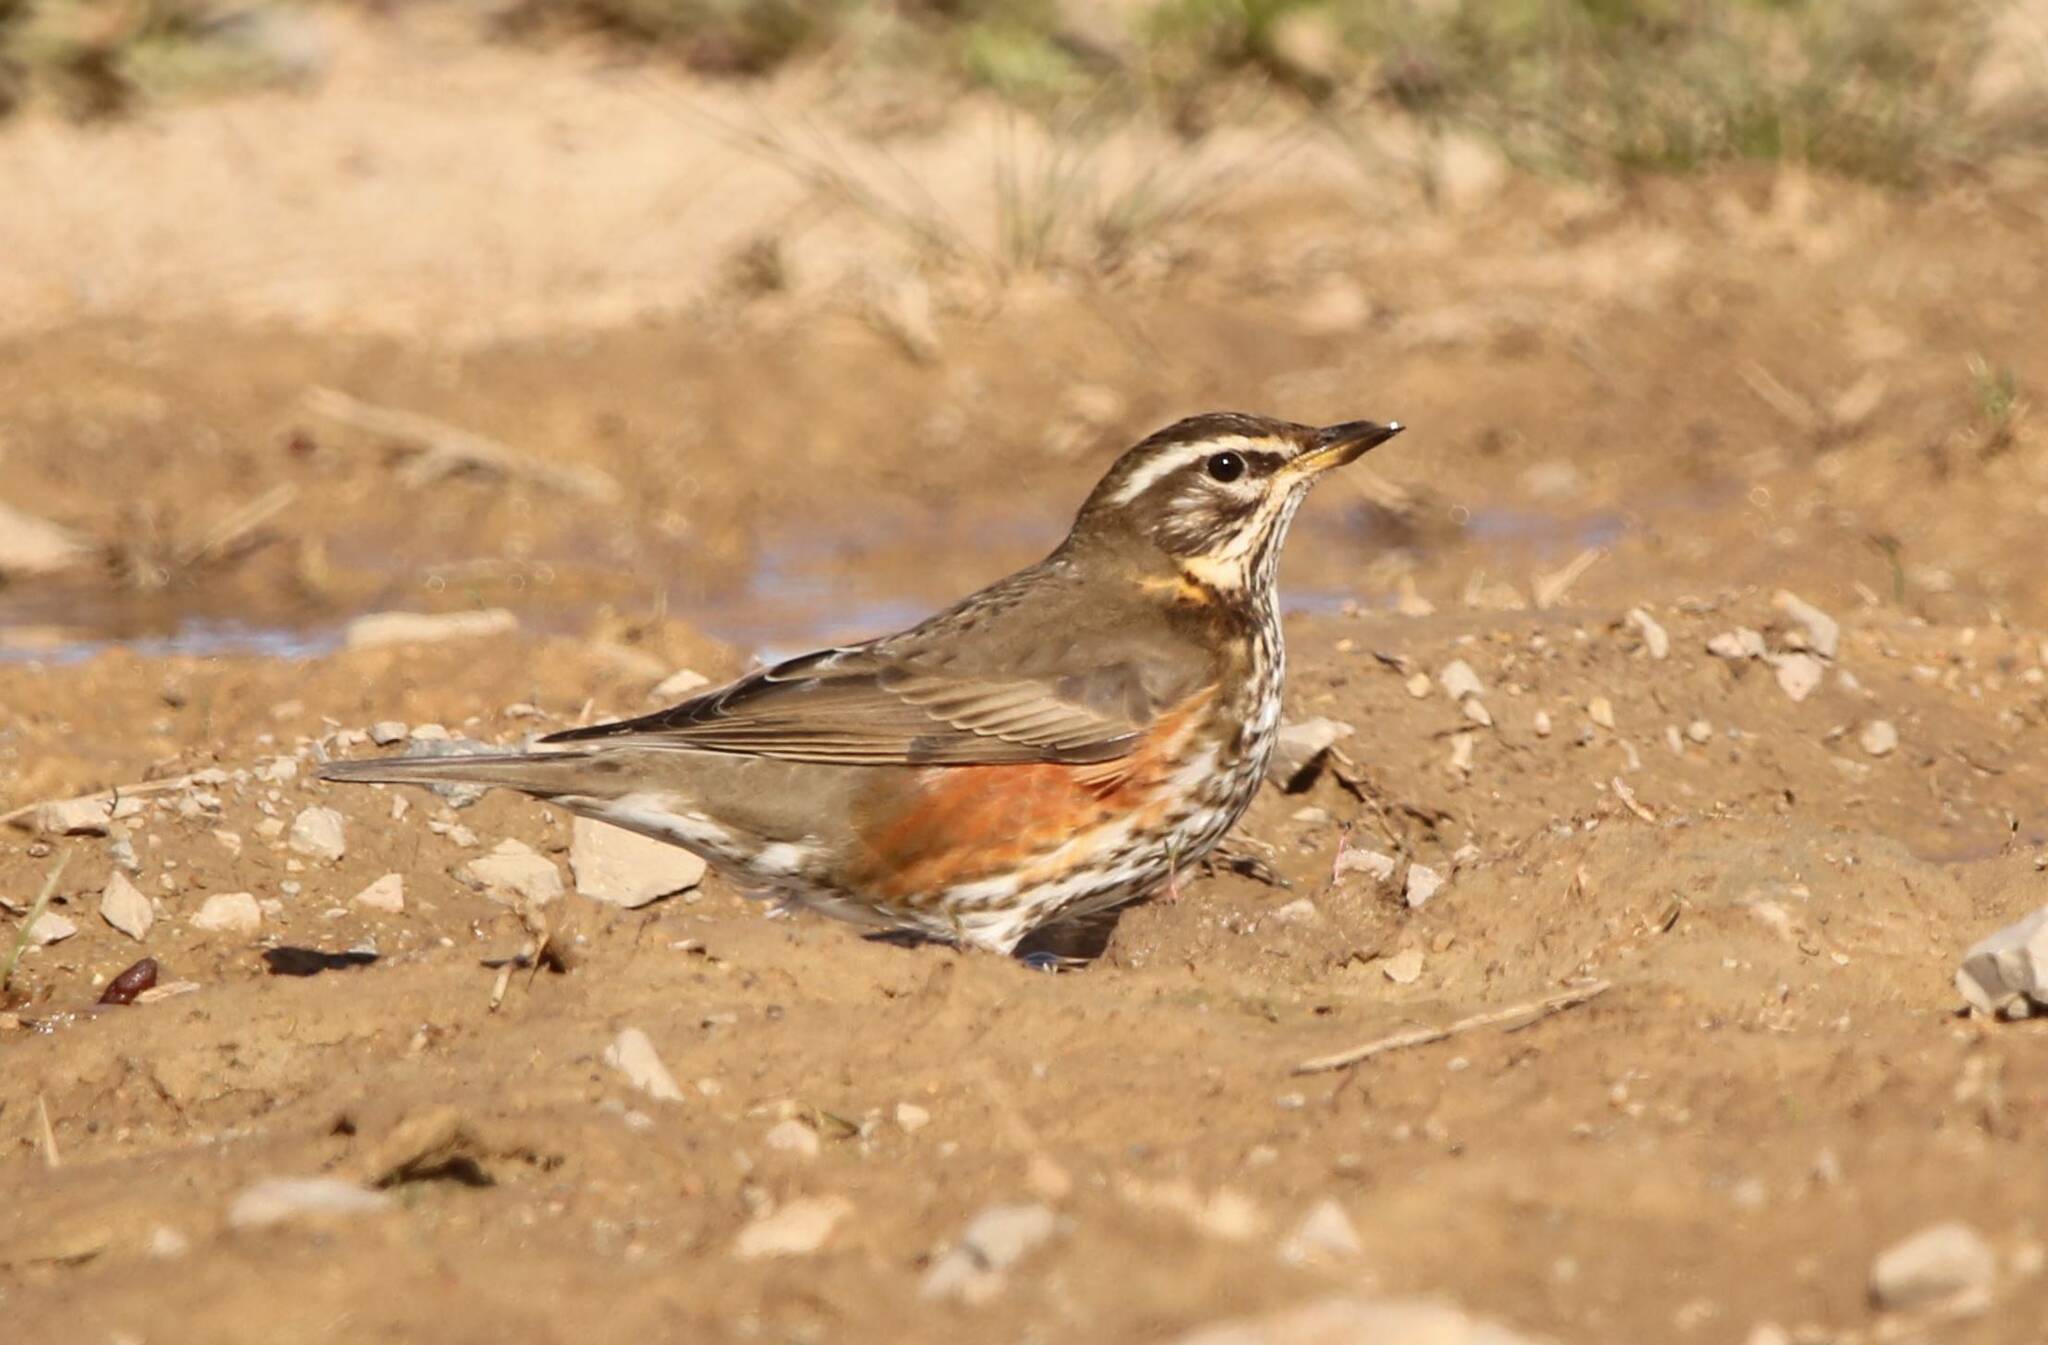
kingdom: Animalia
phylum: Chordata
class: Aves
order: Passeriformes
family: Turdidae
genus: Turdus
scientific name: Turdus iliacus
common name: Redwing
